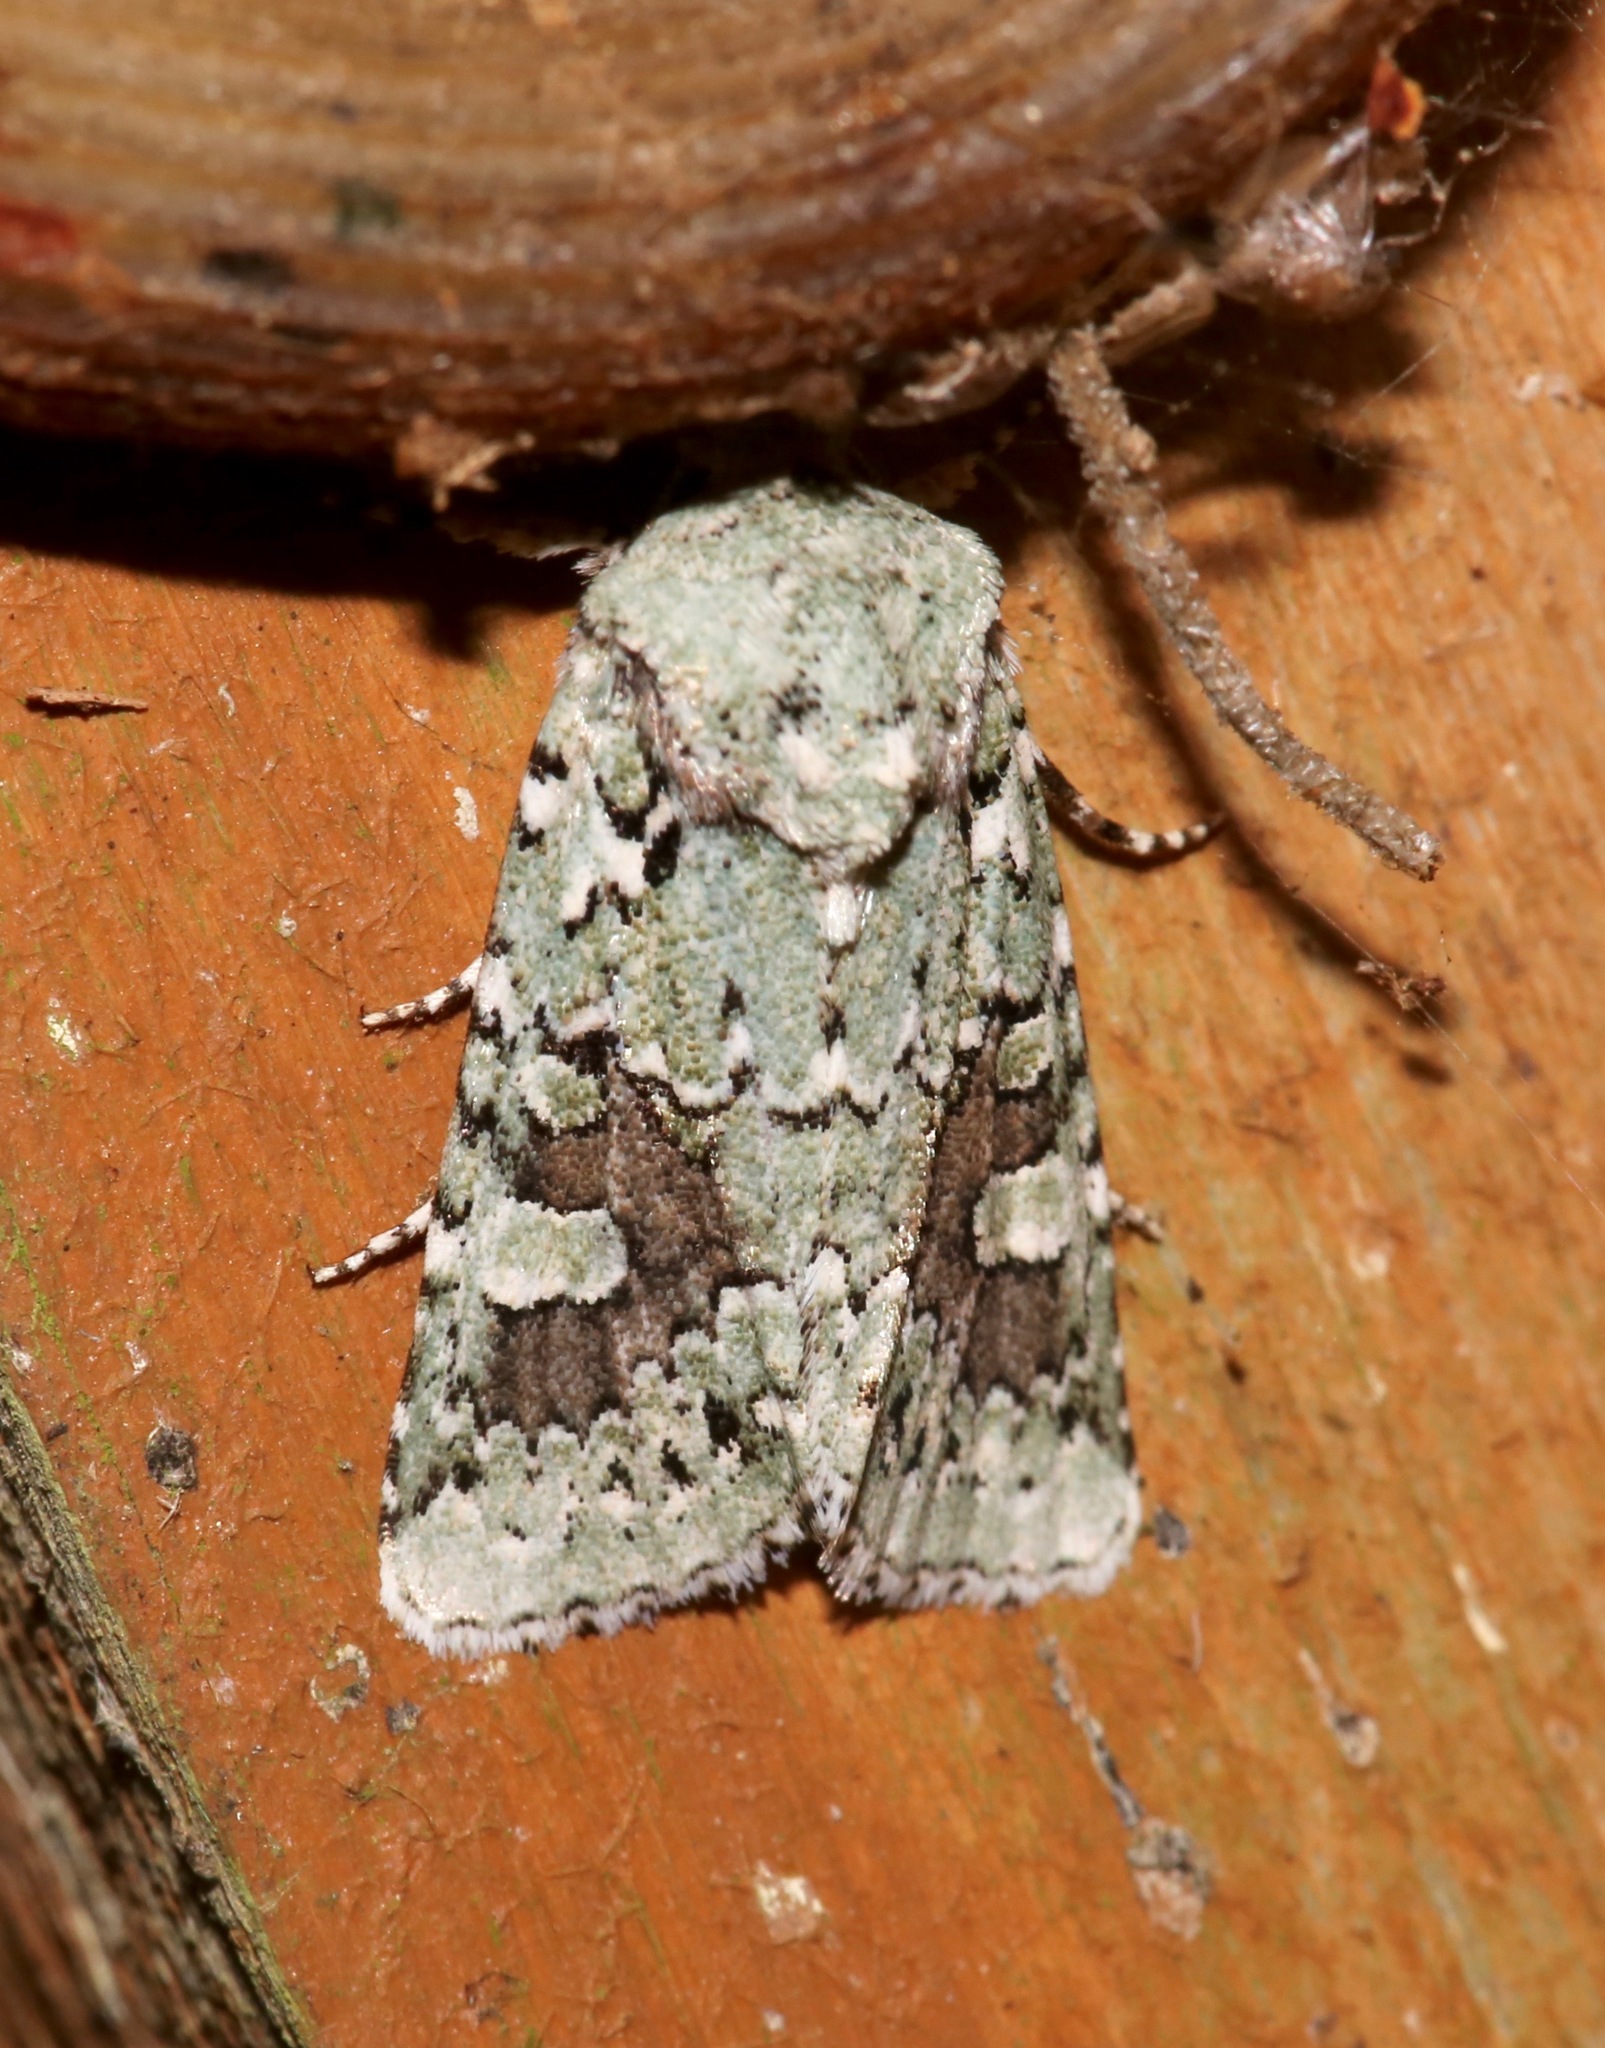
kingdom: Animalia
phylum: Arthropoda
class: Insecta
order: Lepidoptera
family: Noctuidae
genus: Lacinipolia
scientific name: Lacinipolia laudabilis
